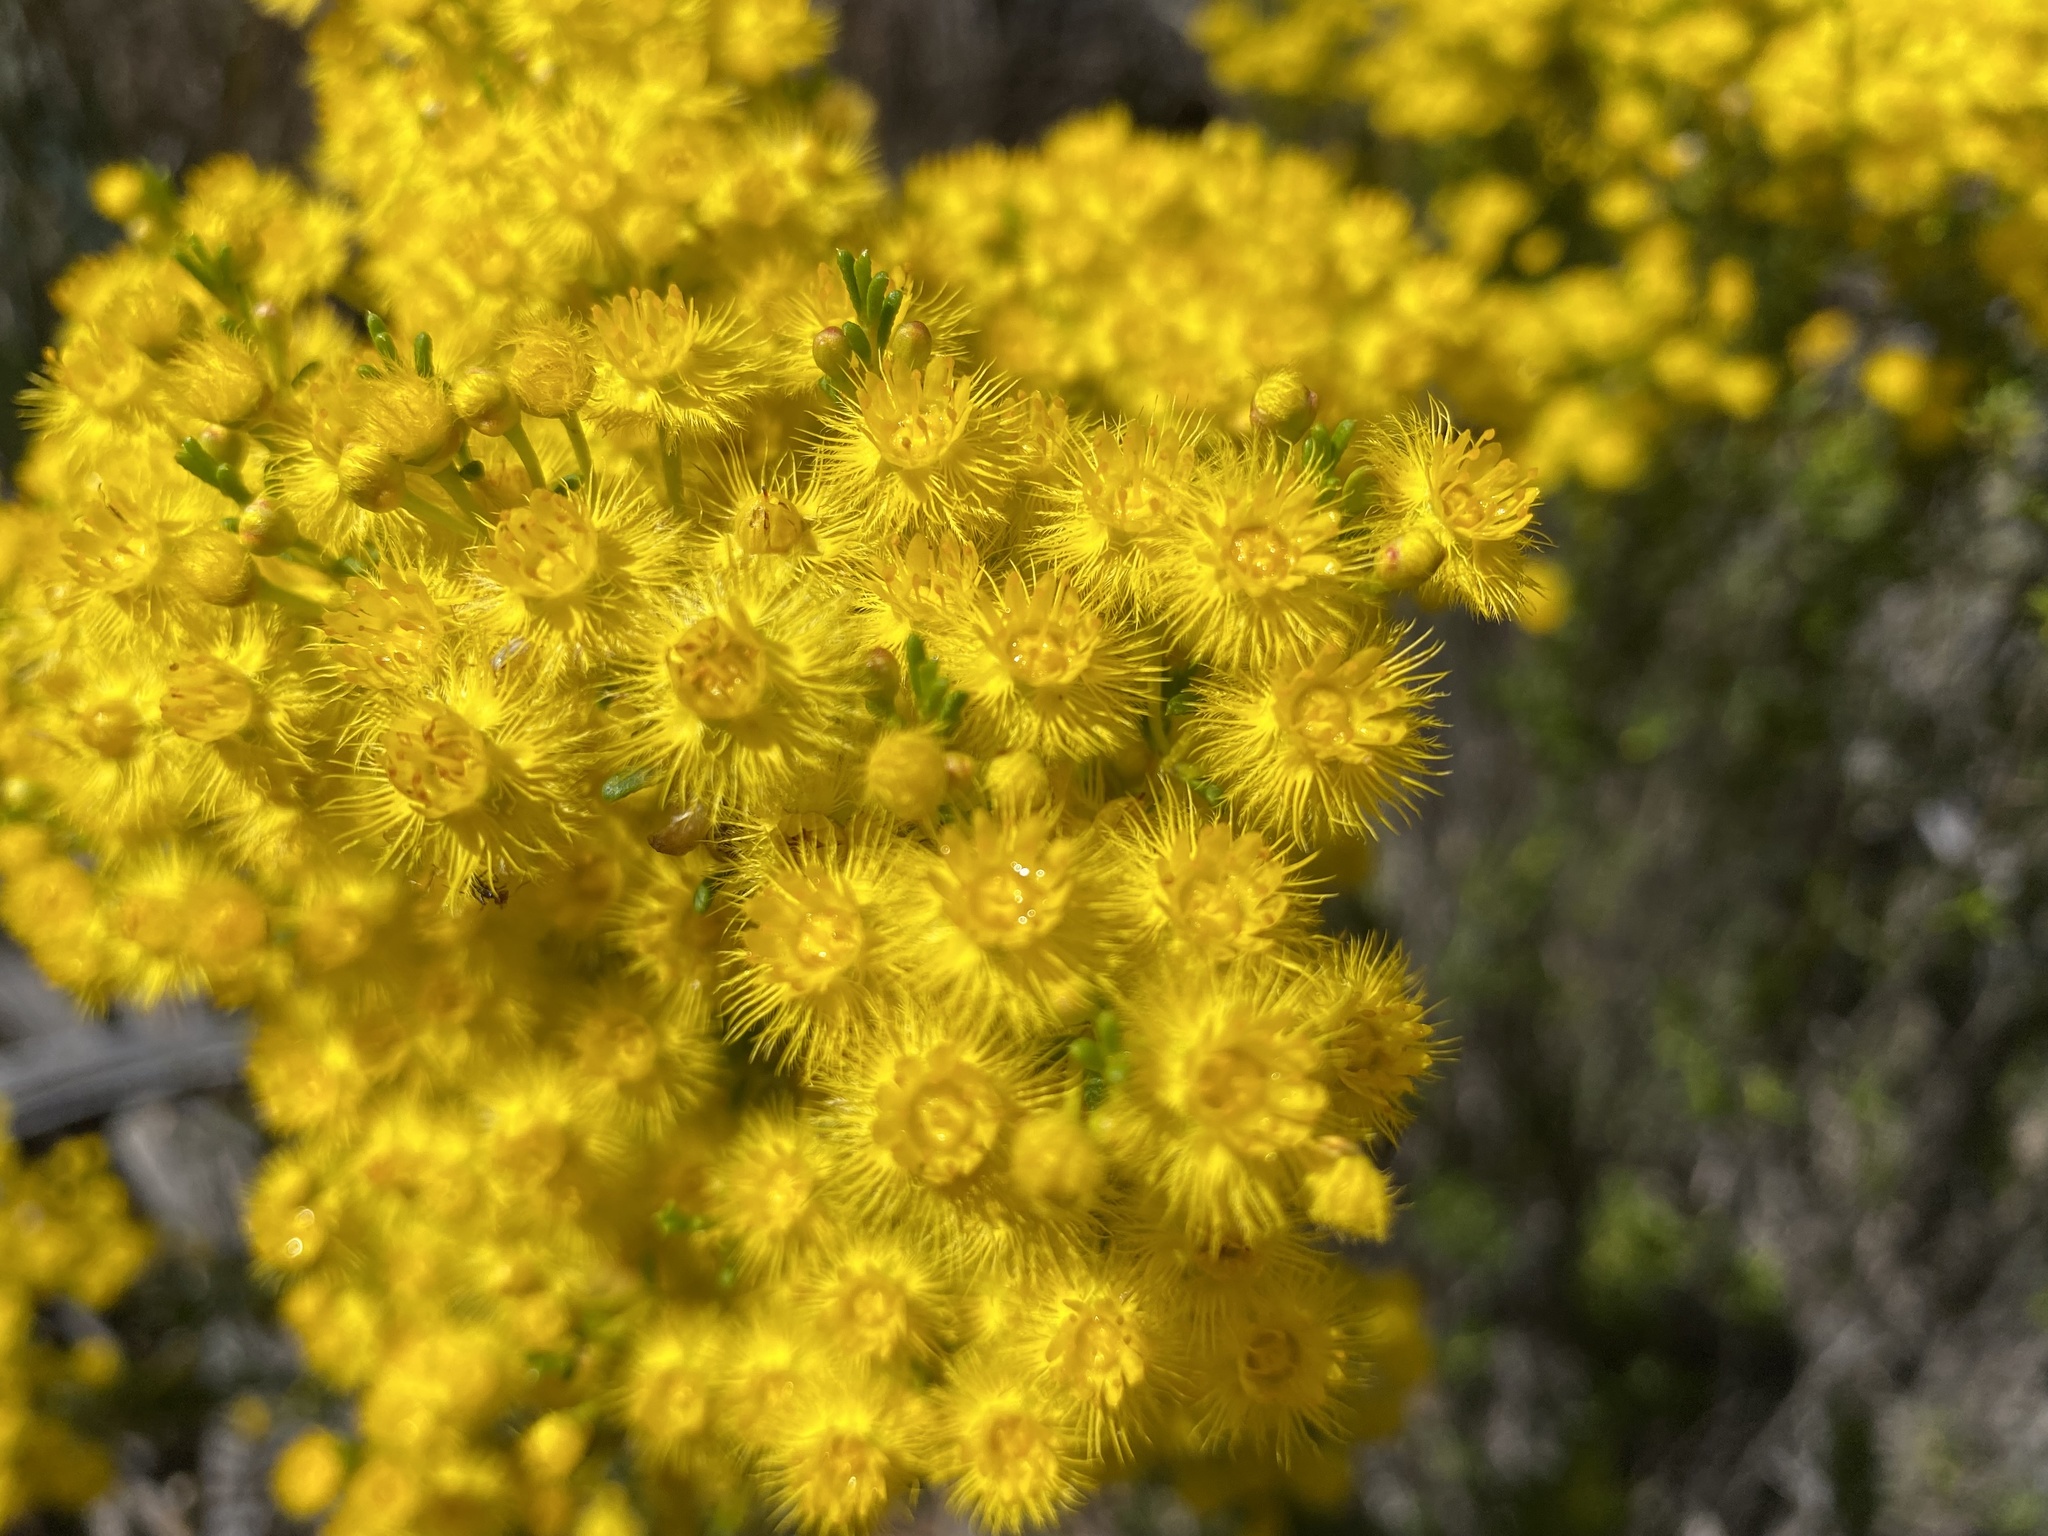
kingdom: Plantae
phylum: Tracheophyta
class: Magnoliopsida
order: Myrtales
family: Myrtaceae
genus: Verticordia
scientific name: Verticordia chrysanthella
